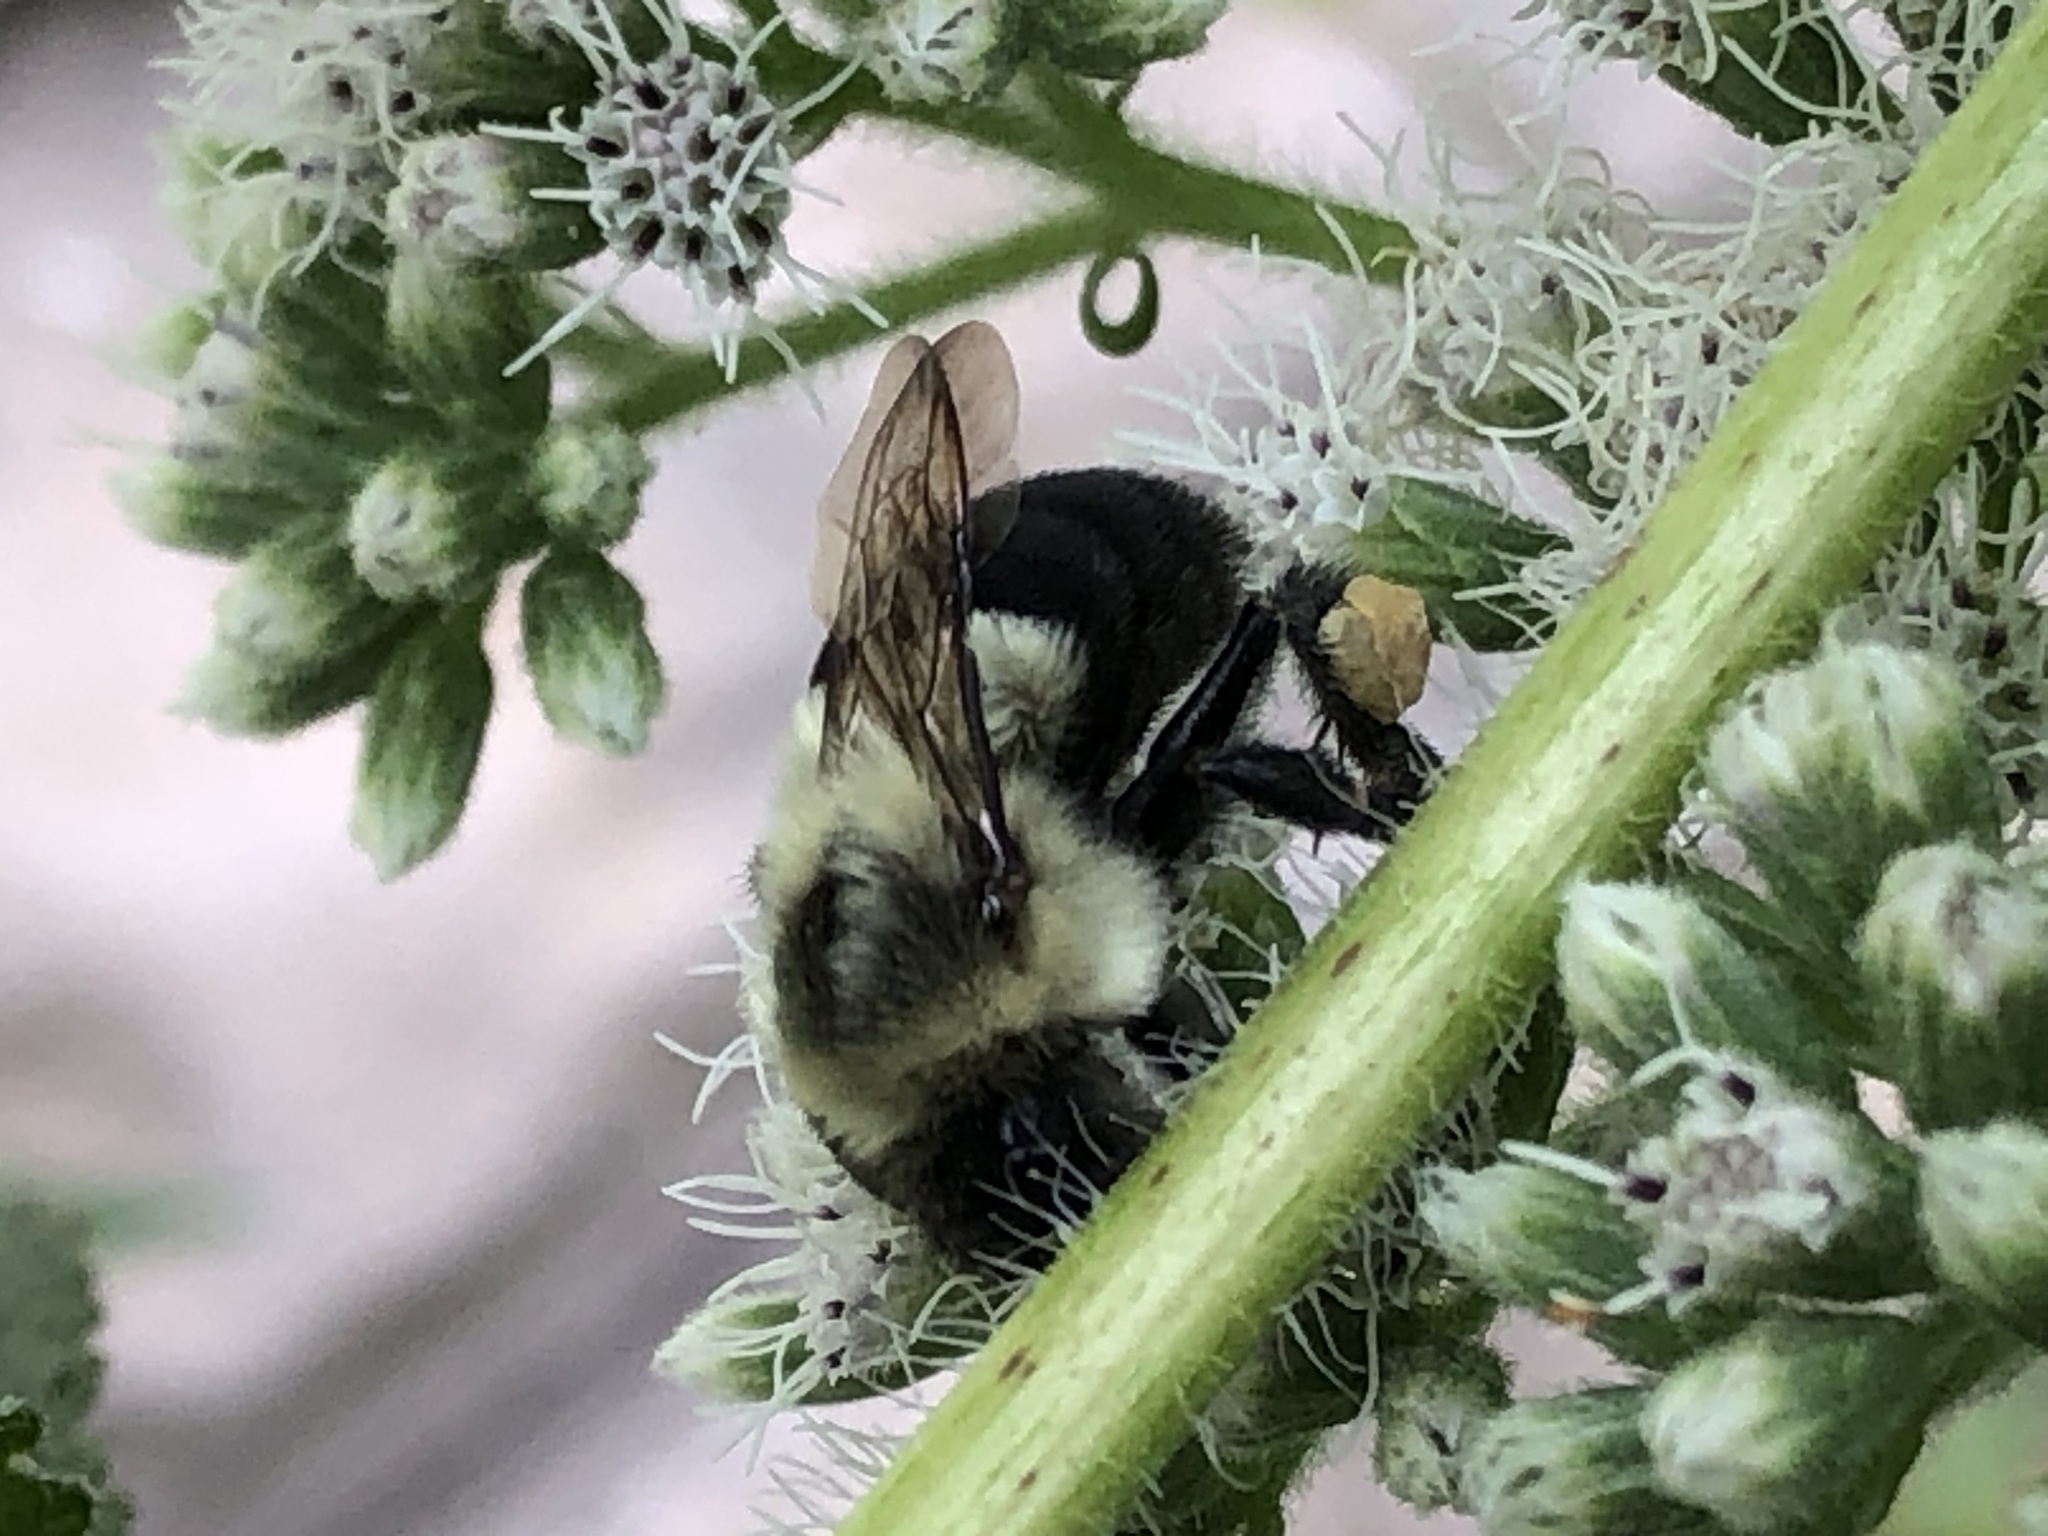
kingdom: Animalia
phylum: Arthropoda
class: Insecta
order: Hymenoptera
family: Apidae
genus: Bombus
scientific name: Bombus impatiens
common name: Common eastern bumble bee
